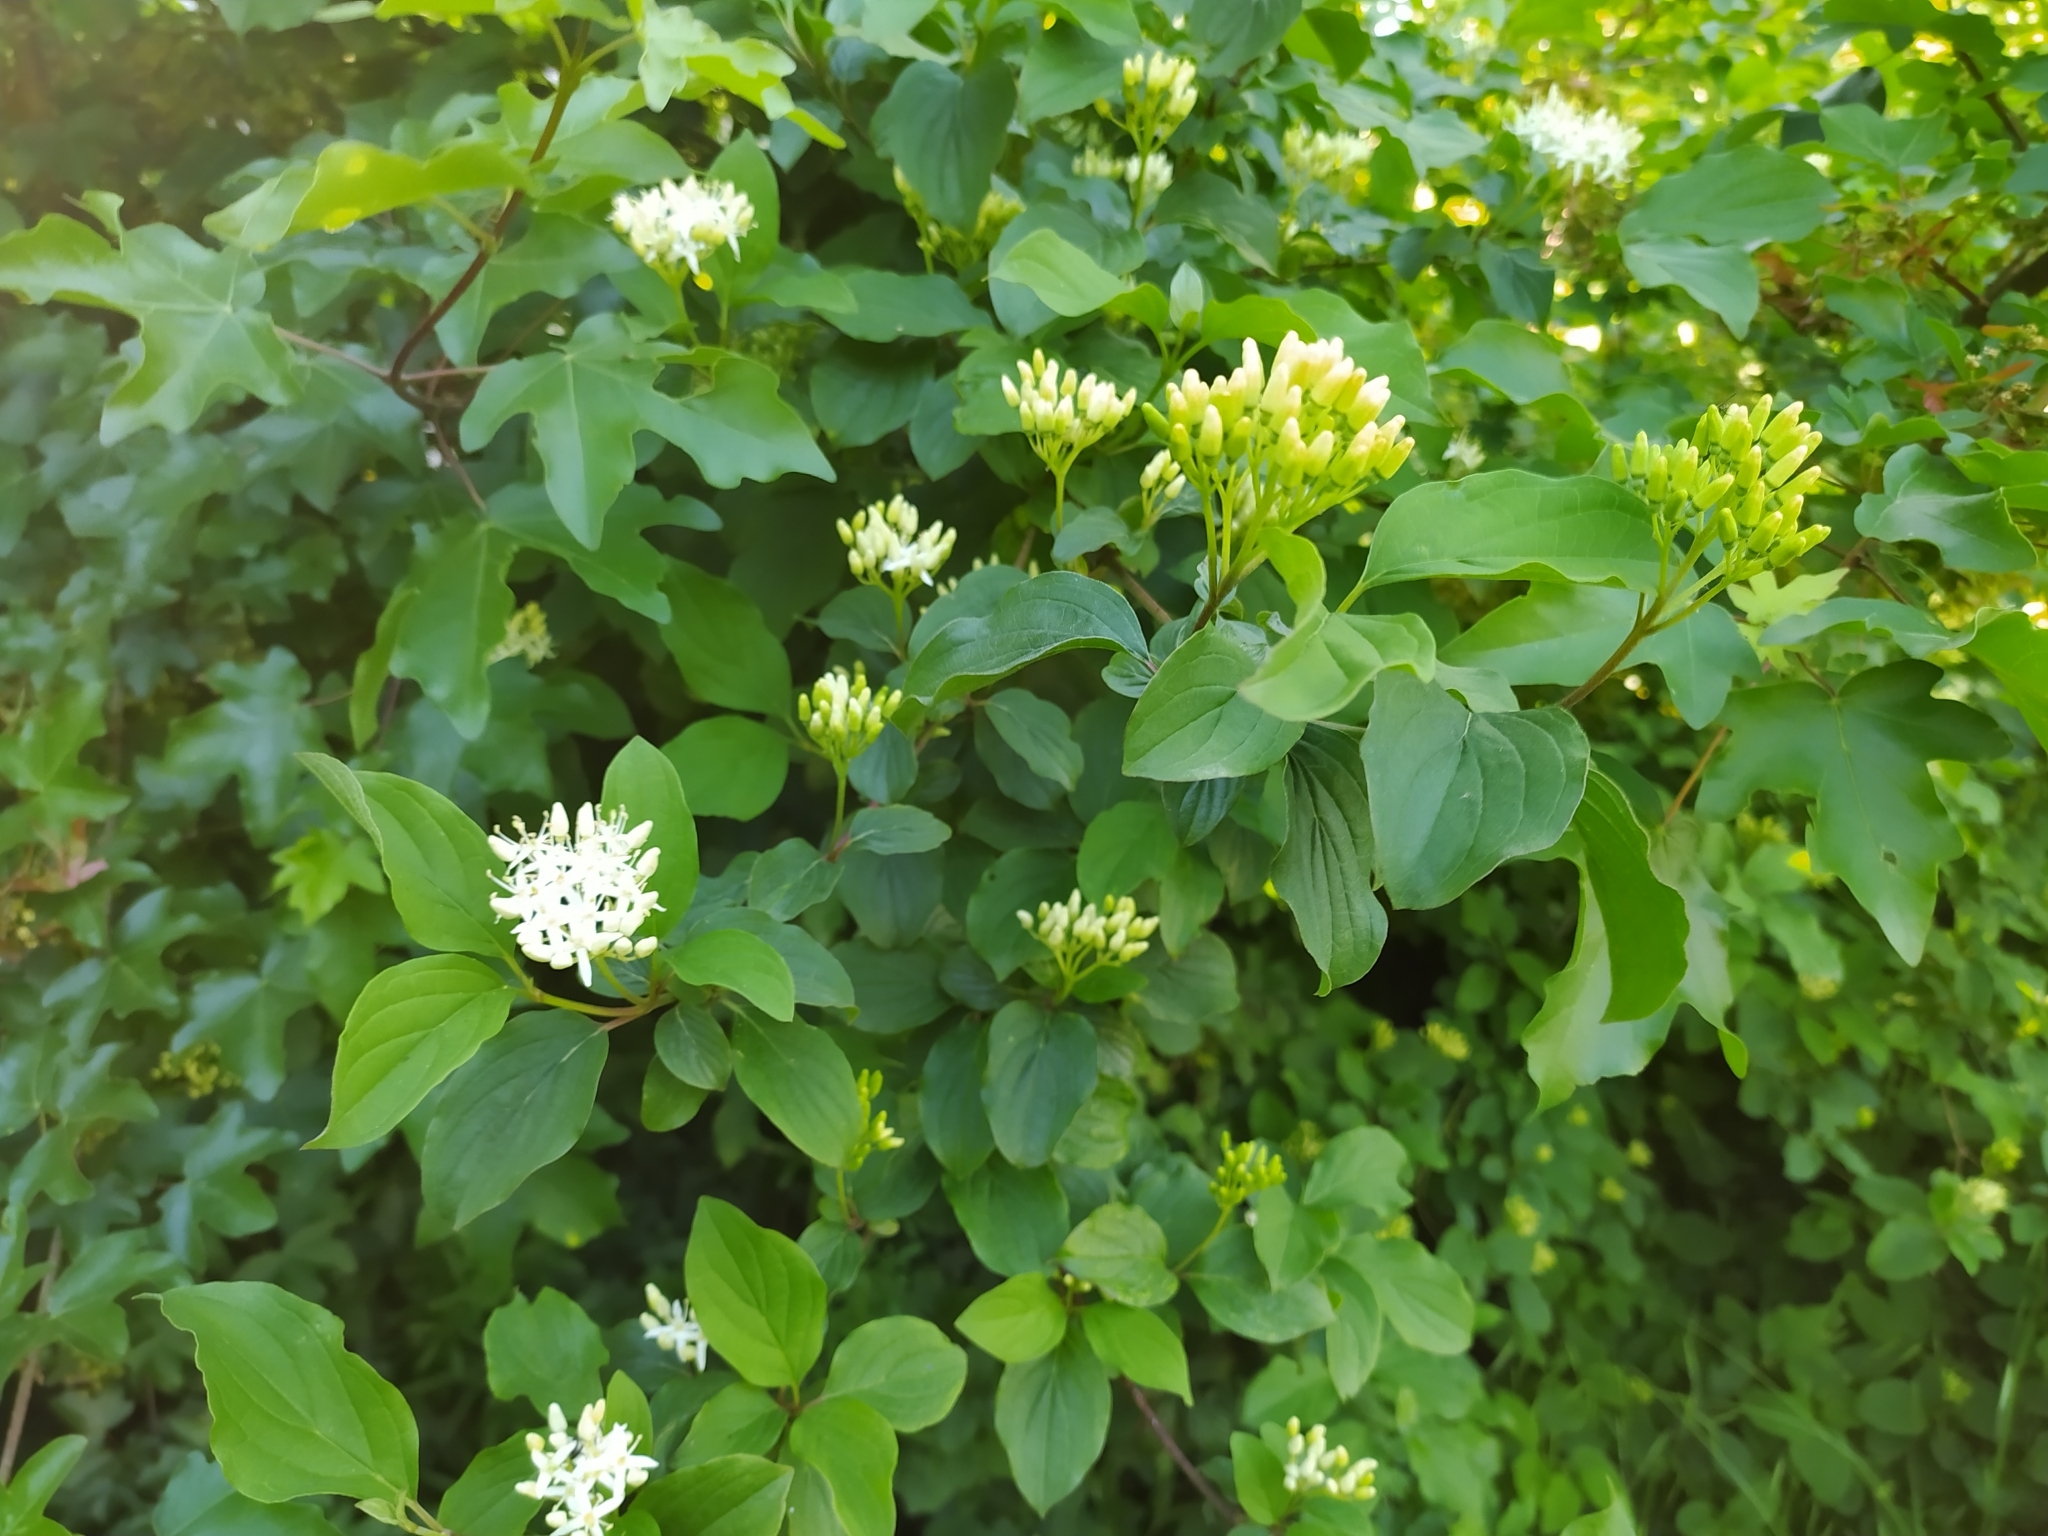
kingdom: Plantae
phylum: Tracheophyta
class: Magnoliopsida
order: Cornales
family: Cornaceae
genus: Cornus
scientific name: Cornus sanguinea
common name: Dogwood
